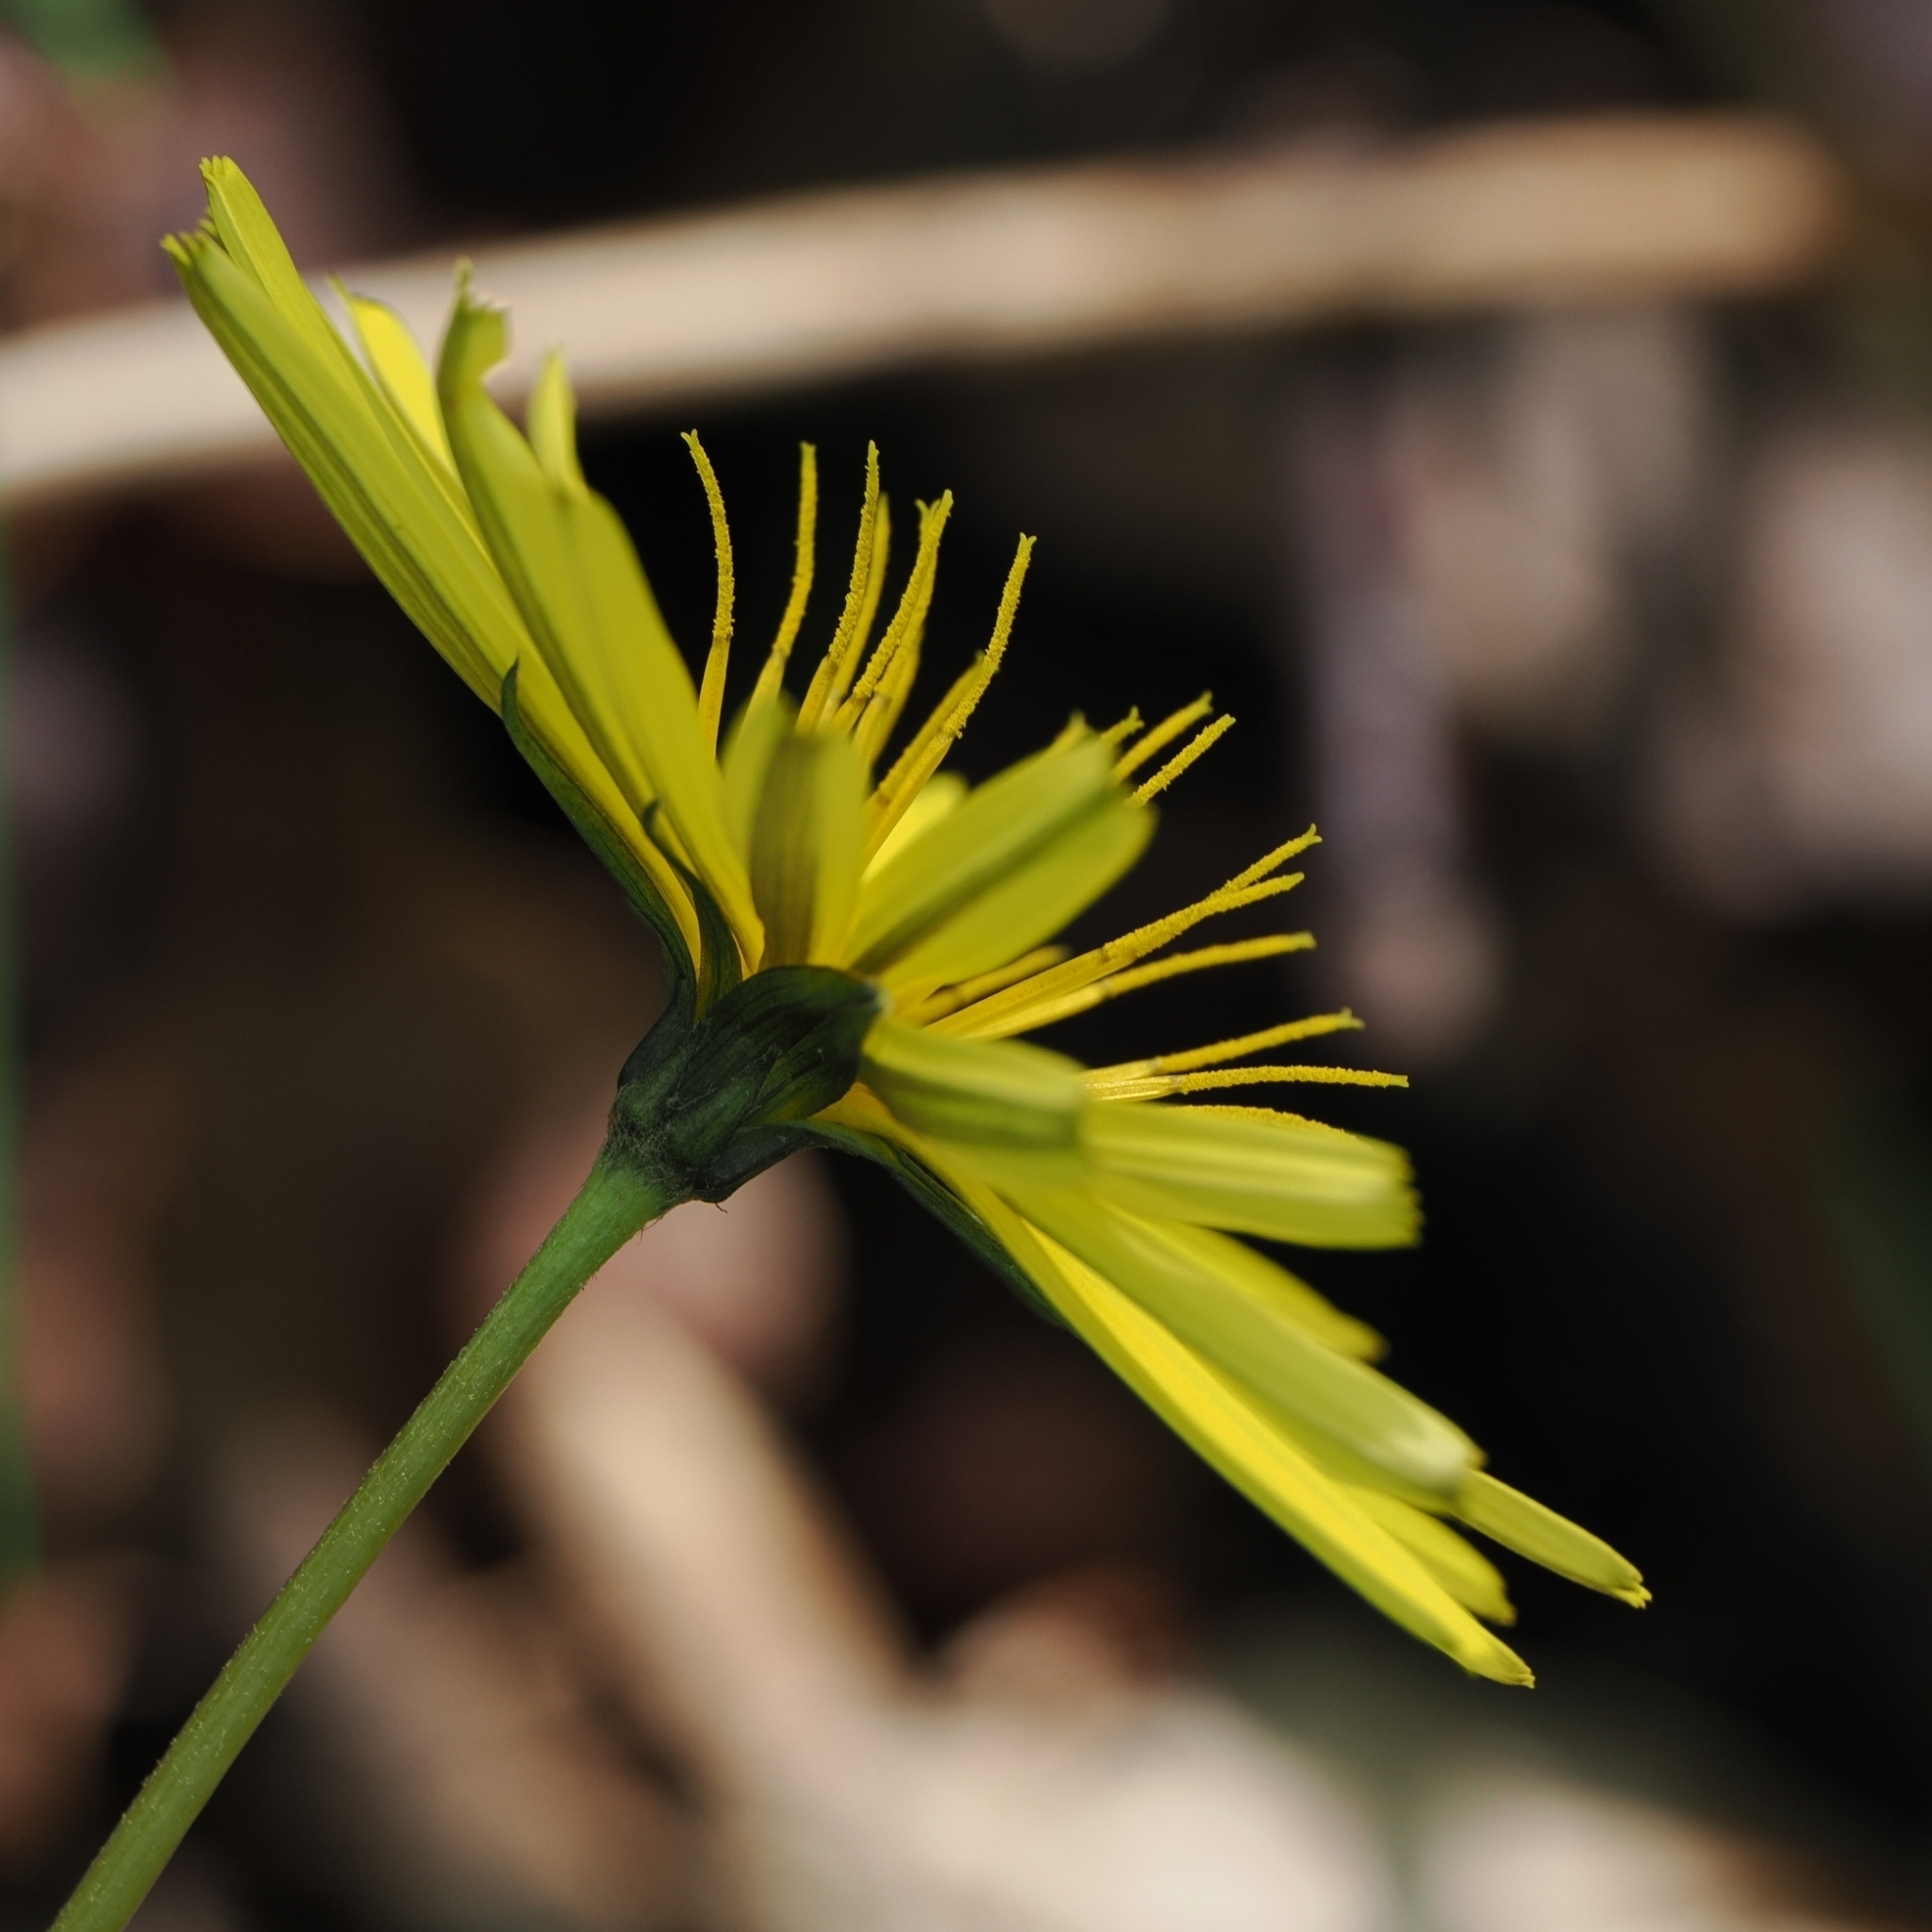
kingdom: Plantae
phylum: Tracheophyta
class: Magnoliopsida
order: Asterales
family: Asteraceae
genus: Aposeris
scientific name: Aposeris foetida
